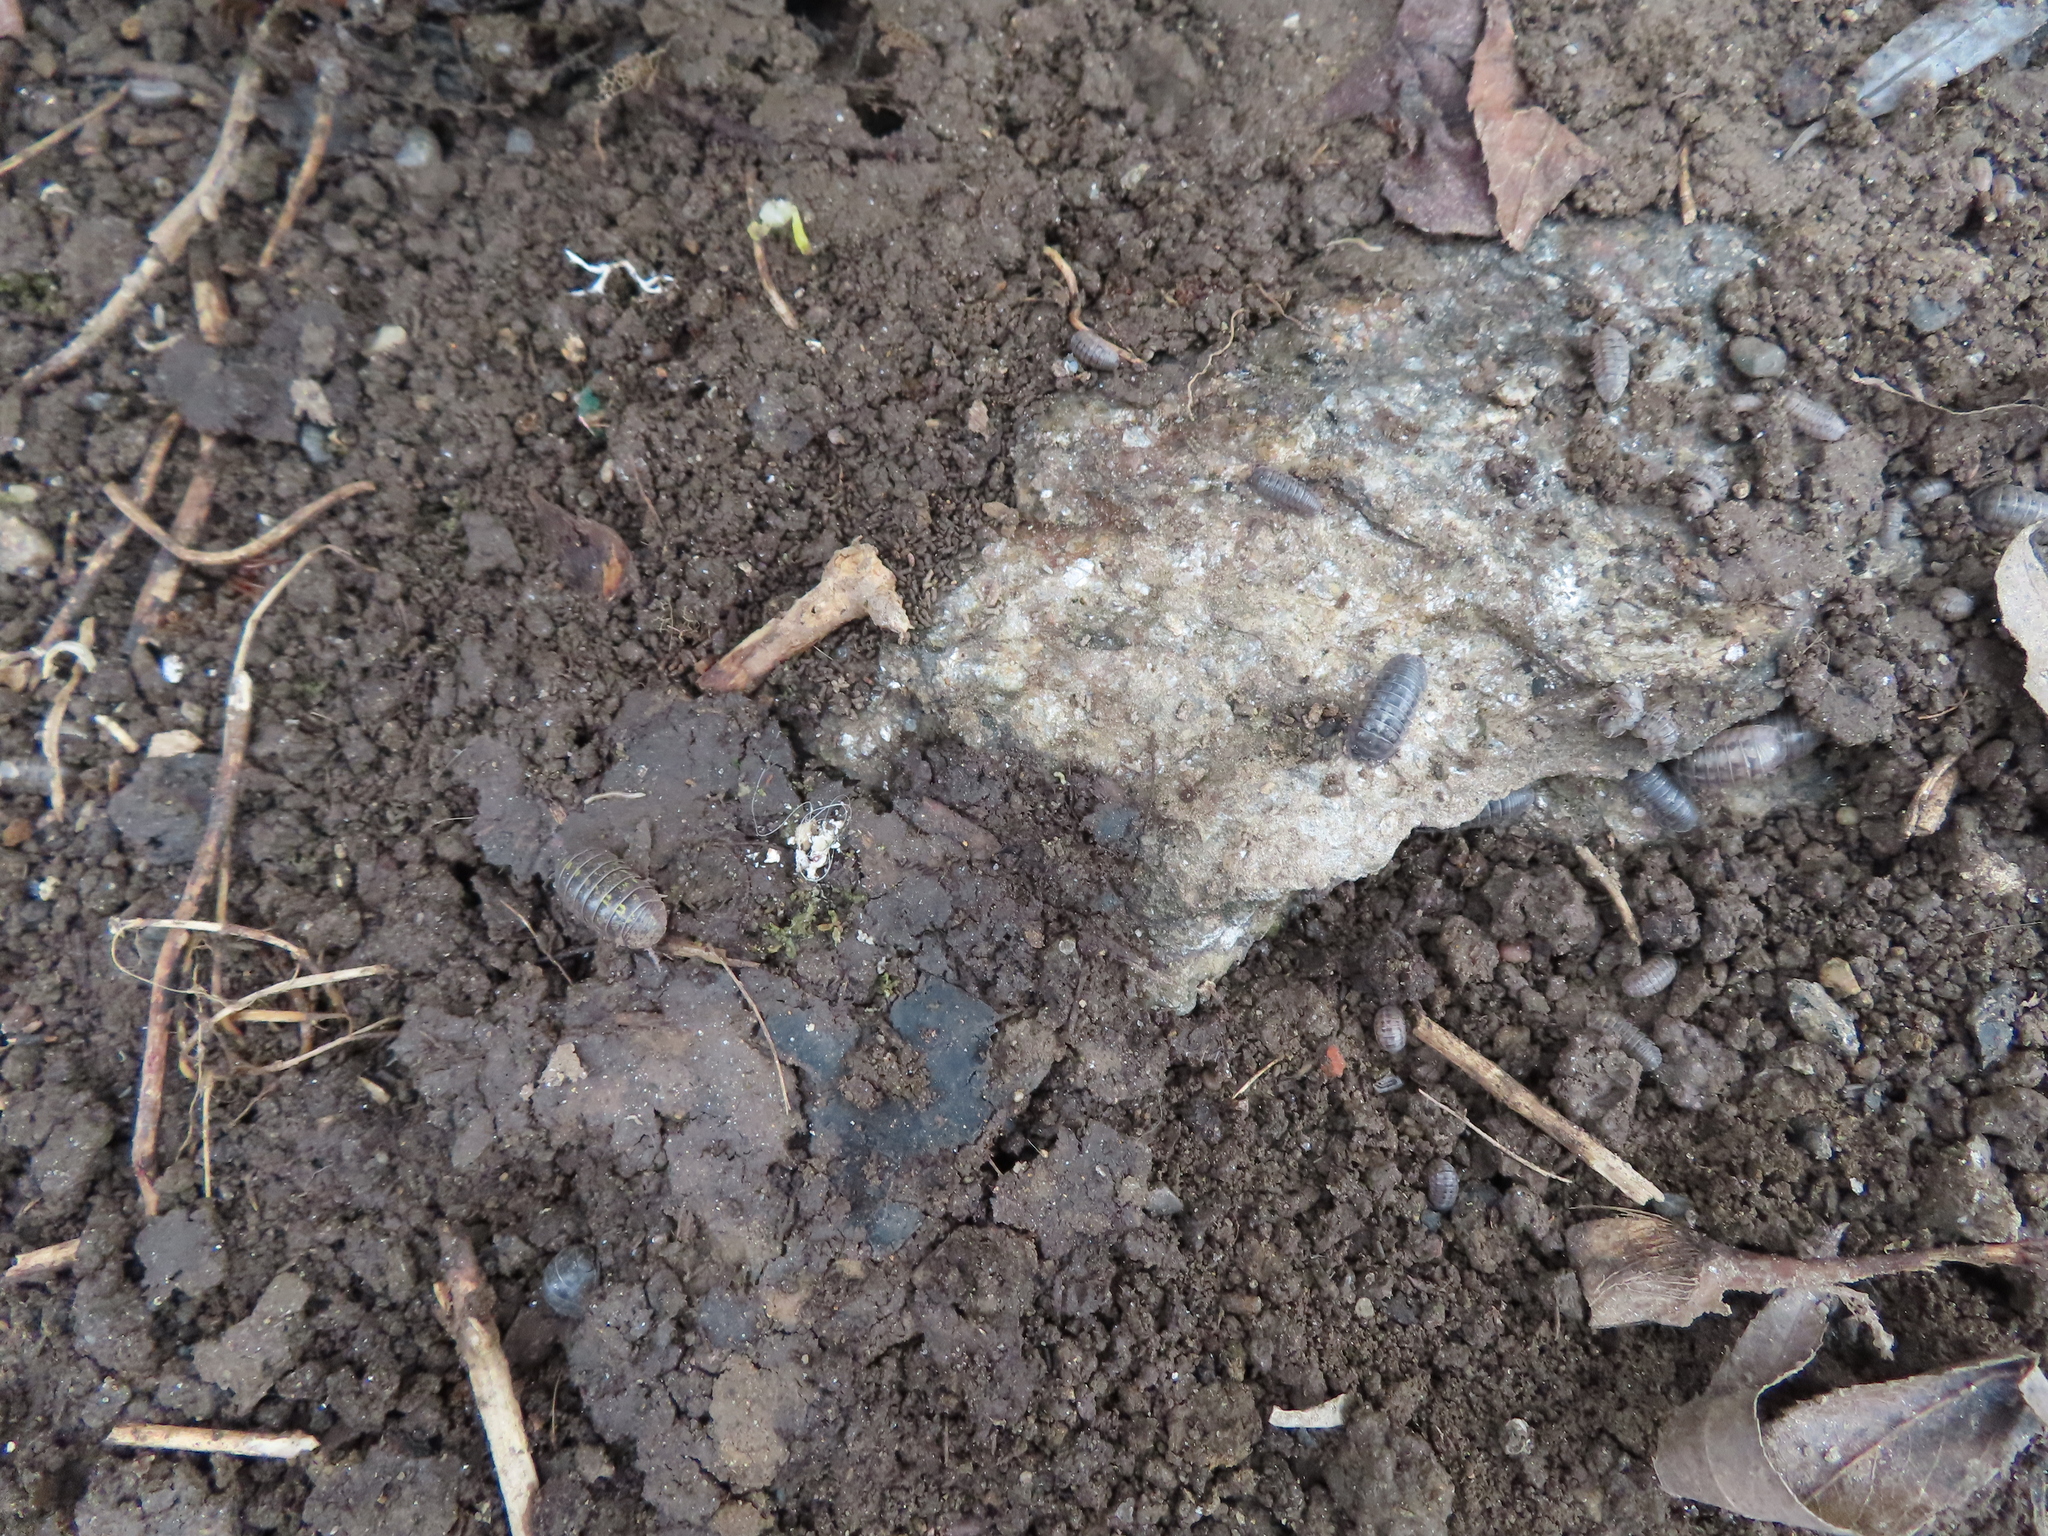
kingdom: Animalia
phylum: Arthropoda
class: Malacostraca
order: Isopoda
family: Armadillidiidae
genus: Armadillidium
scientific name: Armadillidium nasatum
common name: Isopod
